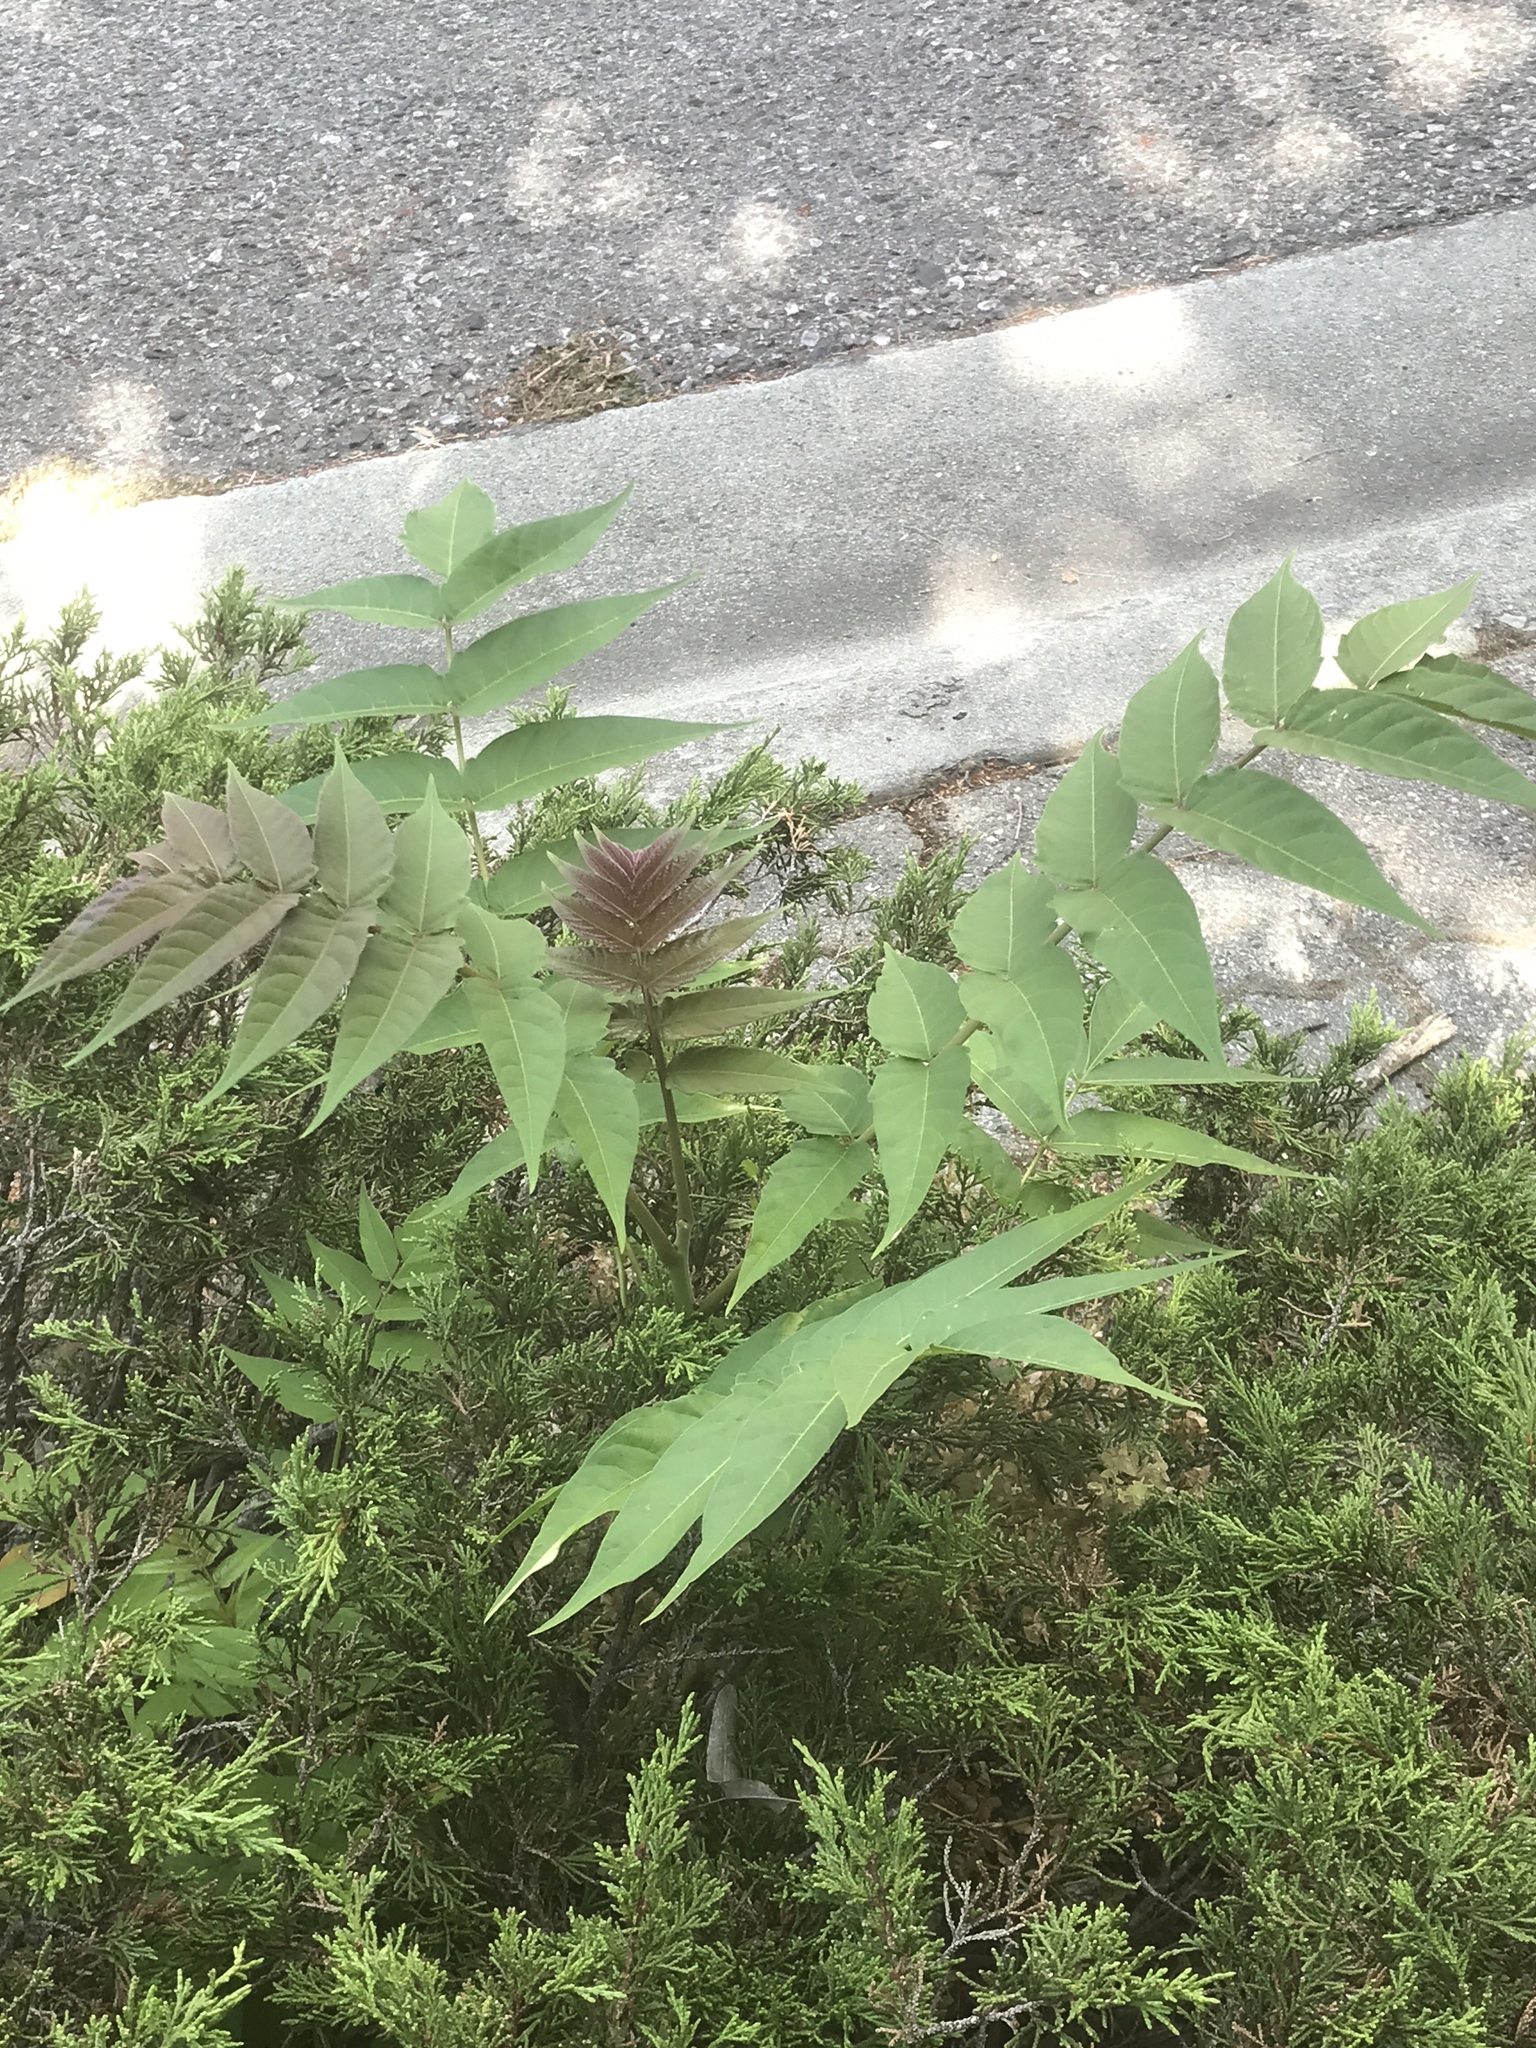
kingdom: Plantae
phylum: Tracheophyta
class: Magnoliopsida
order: Sapindales
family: Simaroubaceae
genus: Ailanthus
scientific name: Ailanthus altissima
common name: Tree-of-heaven
